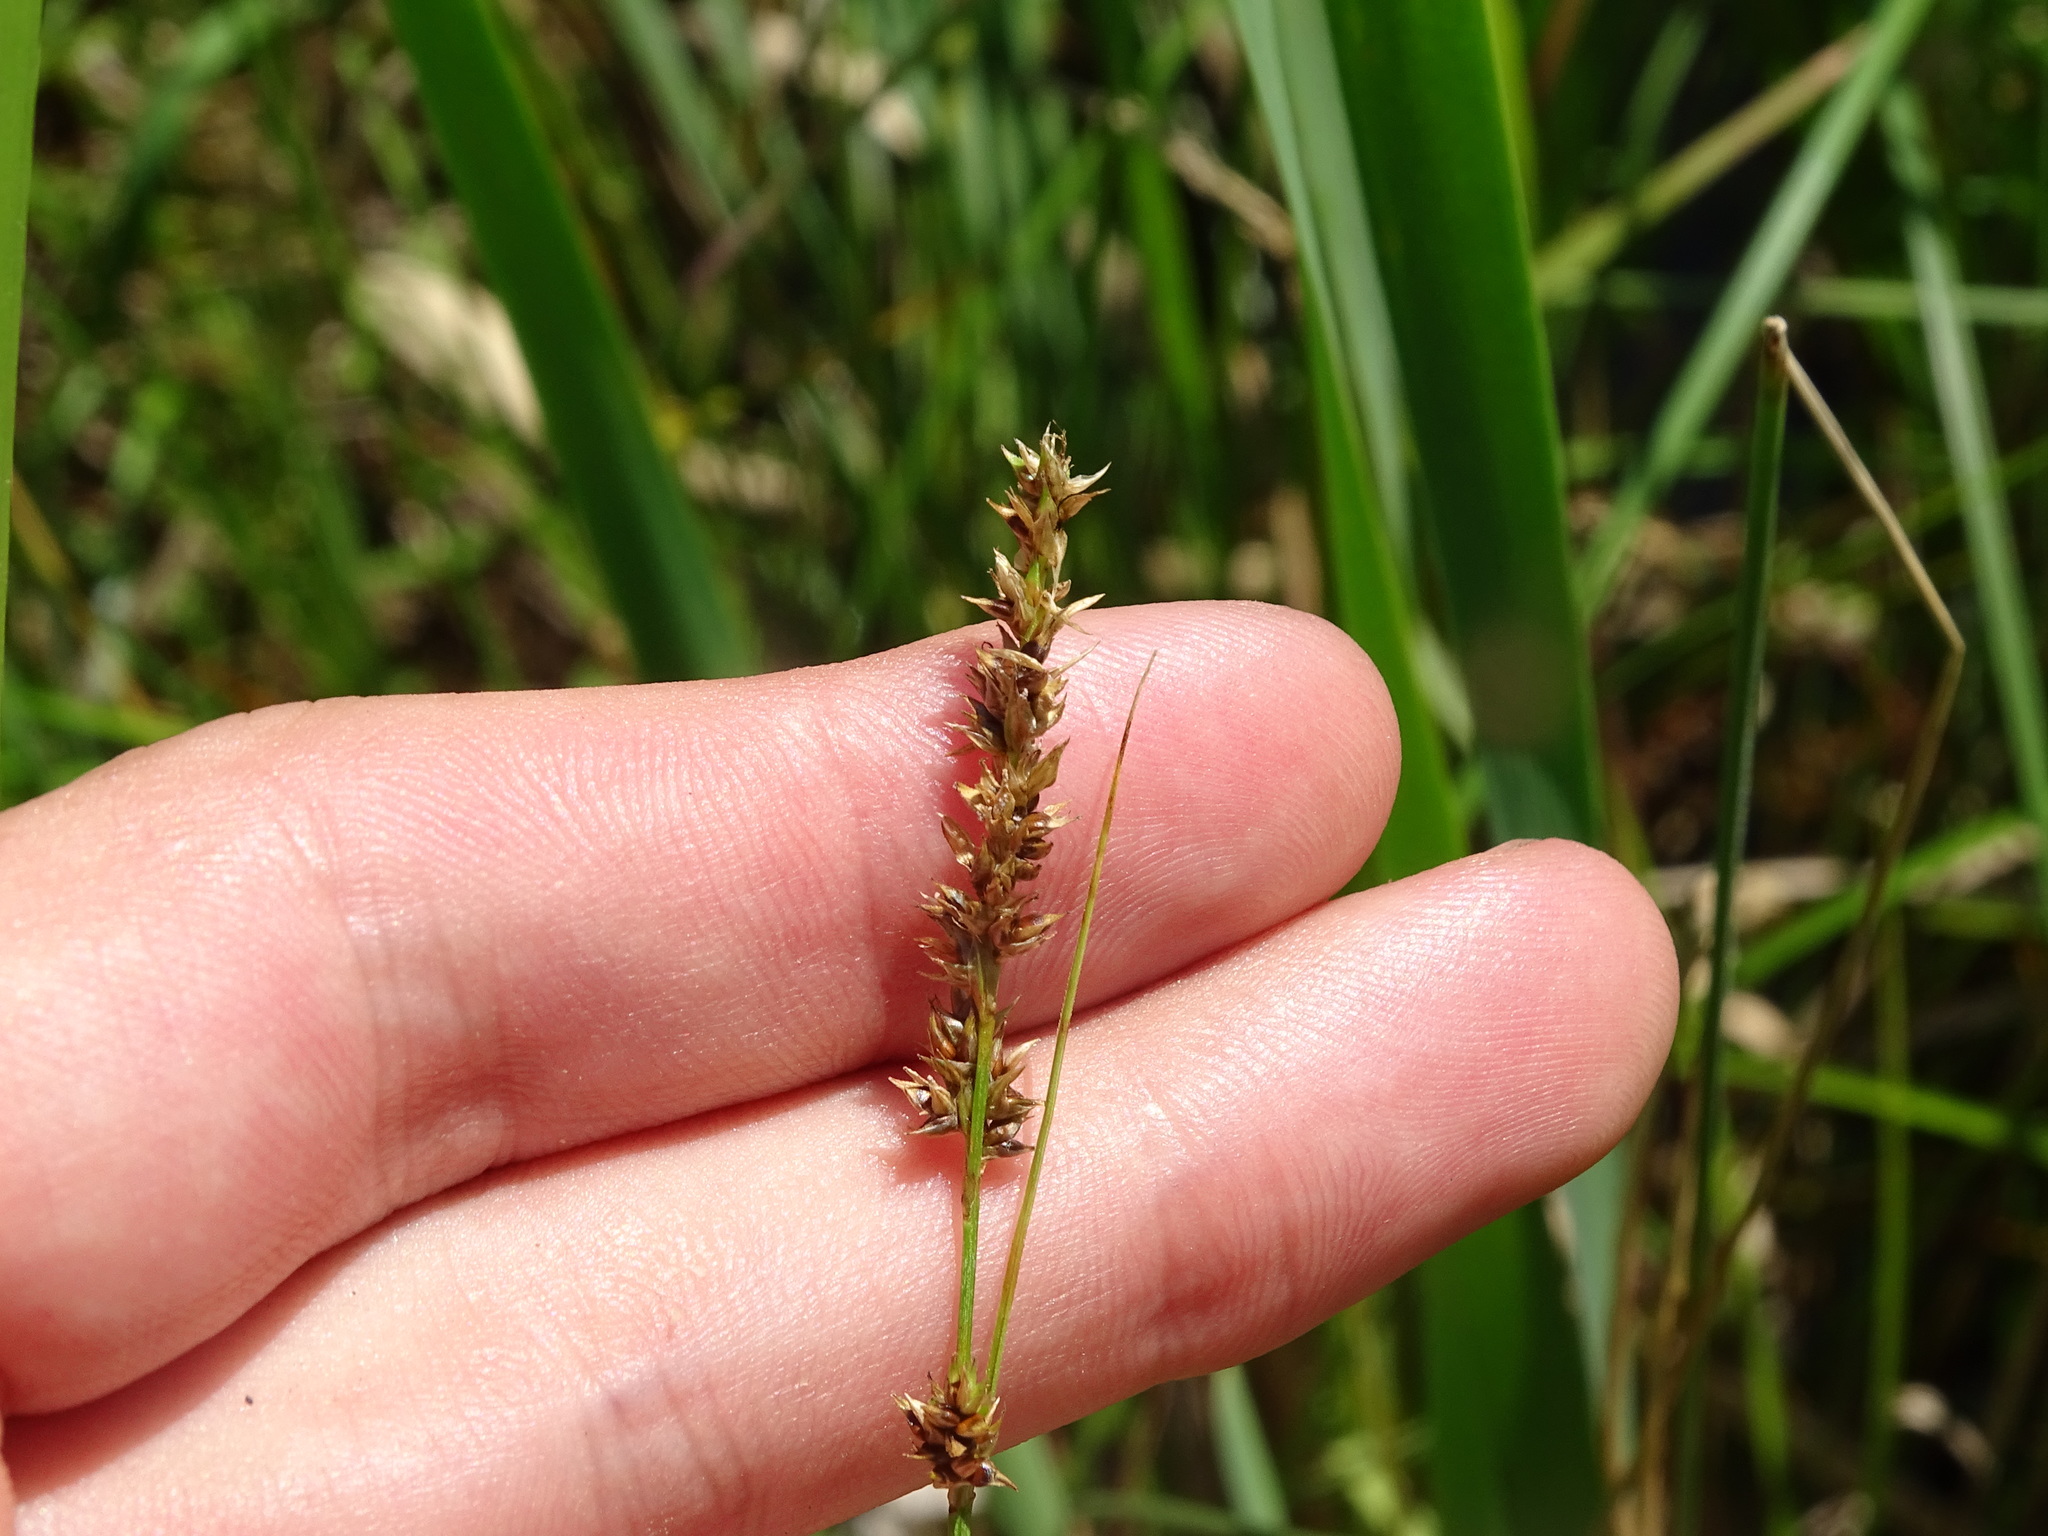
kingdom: Plantae
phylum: Tracheophyta
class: Liliopsida
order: Poales
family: Cyperaceae
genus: Carex
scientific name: Carex prairea
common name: Prairie sedge
